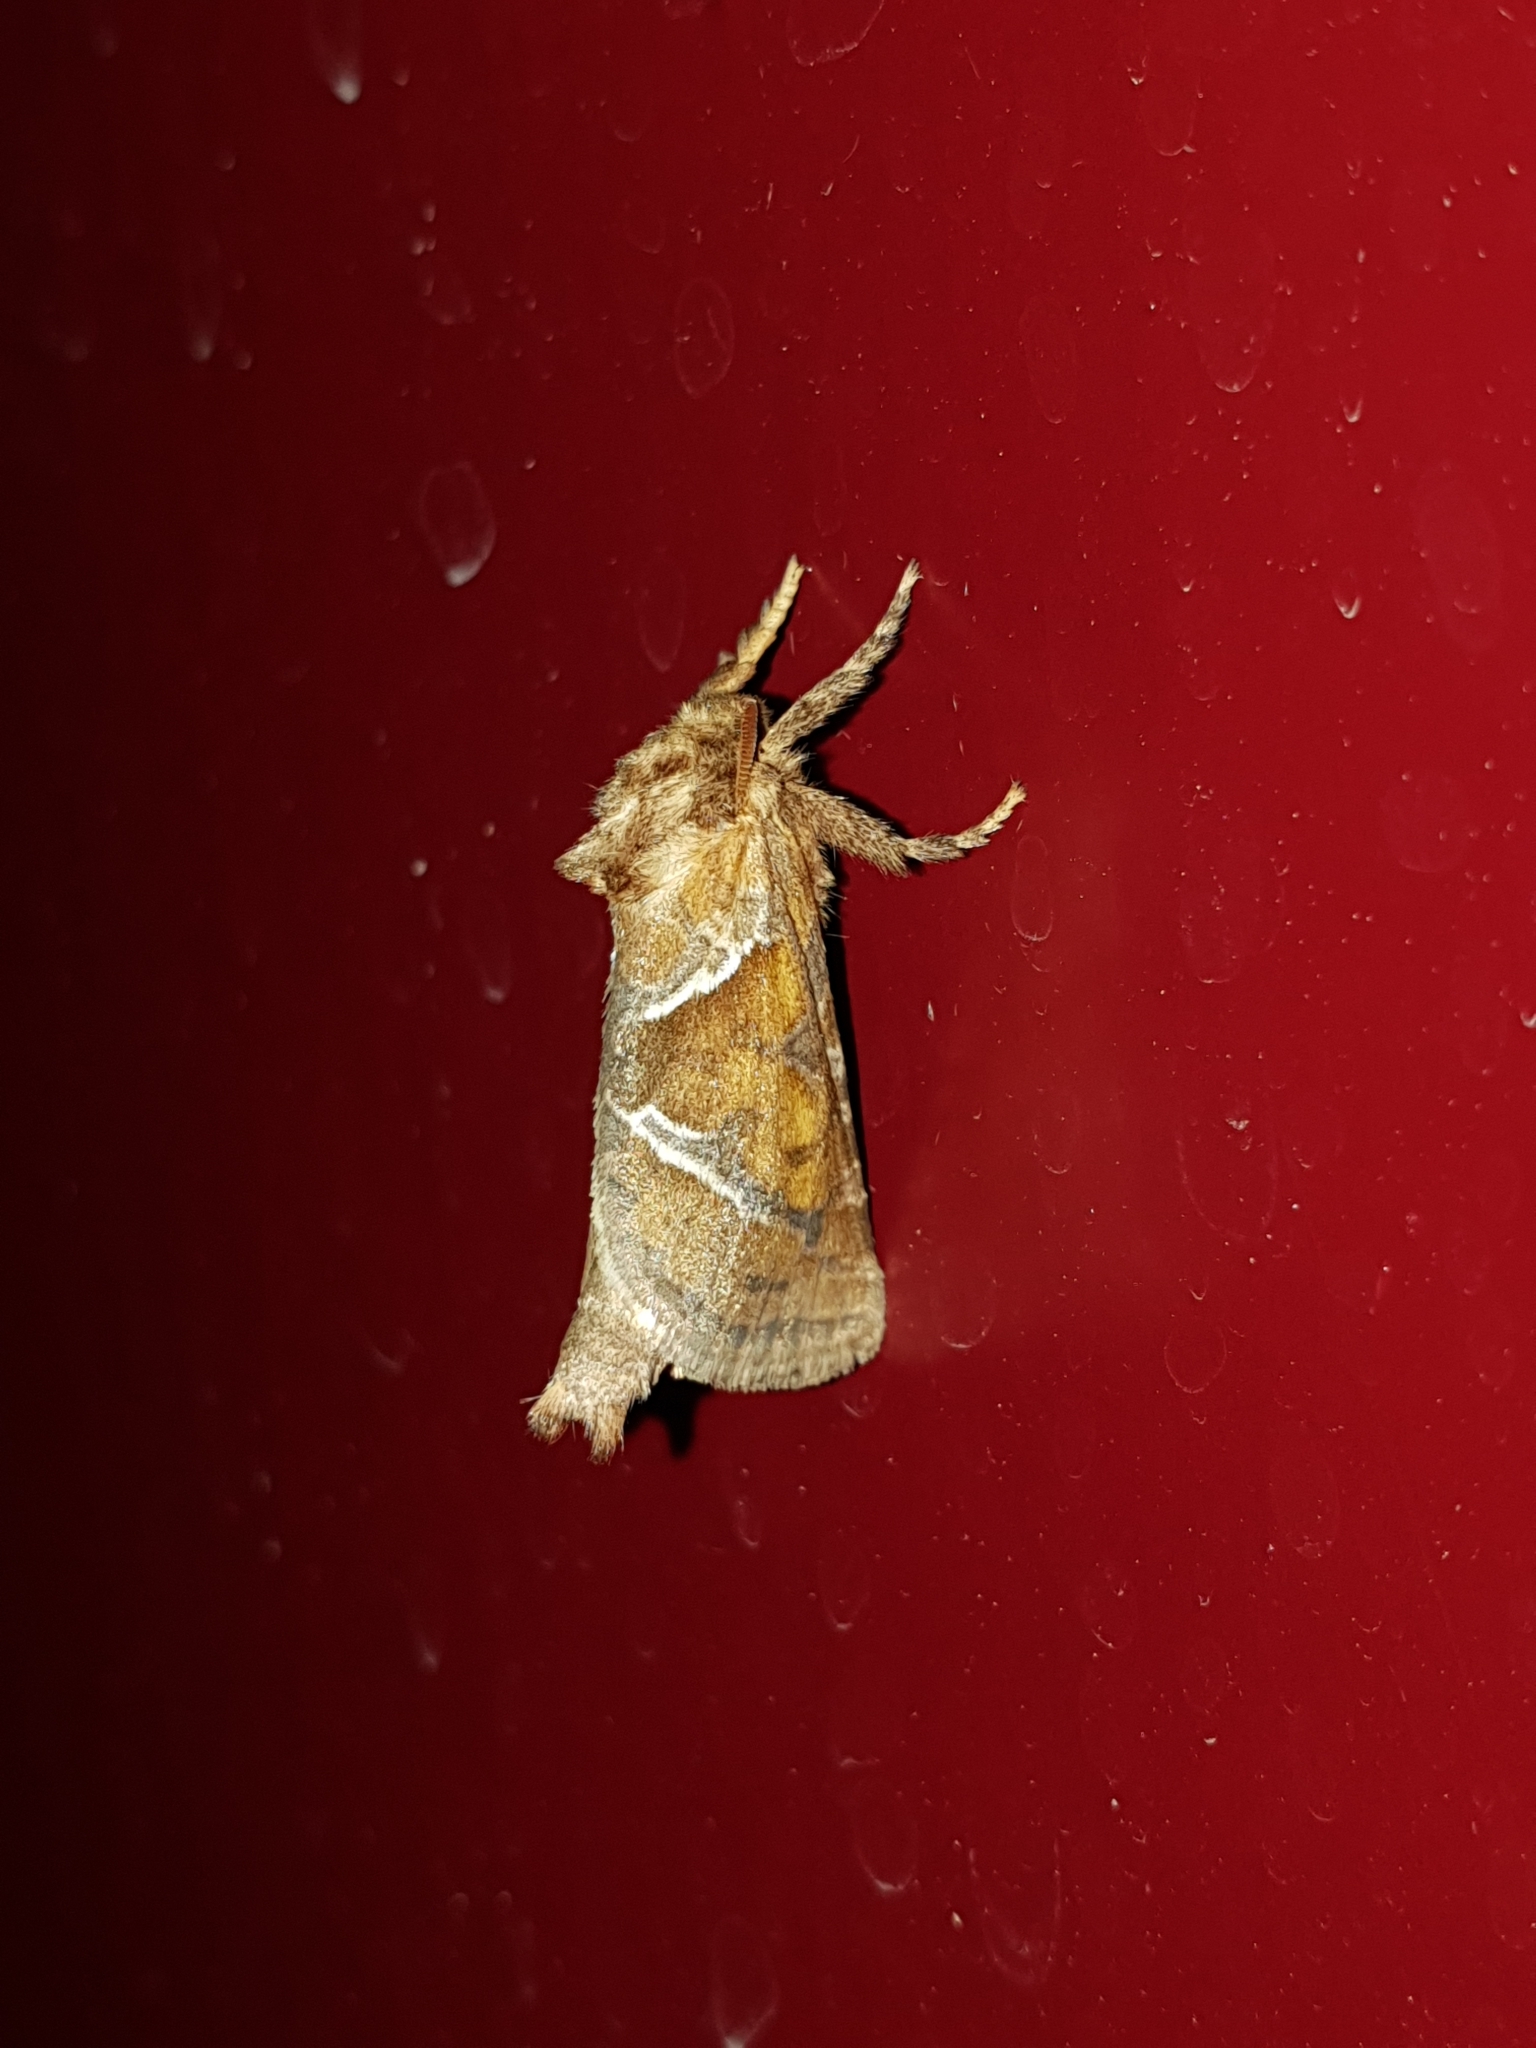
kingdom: Animalia
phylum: Arthropoda
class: Insecta
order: Lepidoptera
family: Hepialidae
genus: Triodia
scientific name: Triodia sylvina
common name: Orange swift
